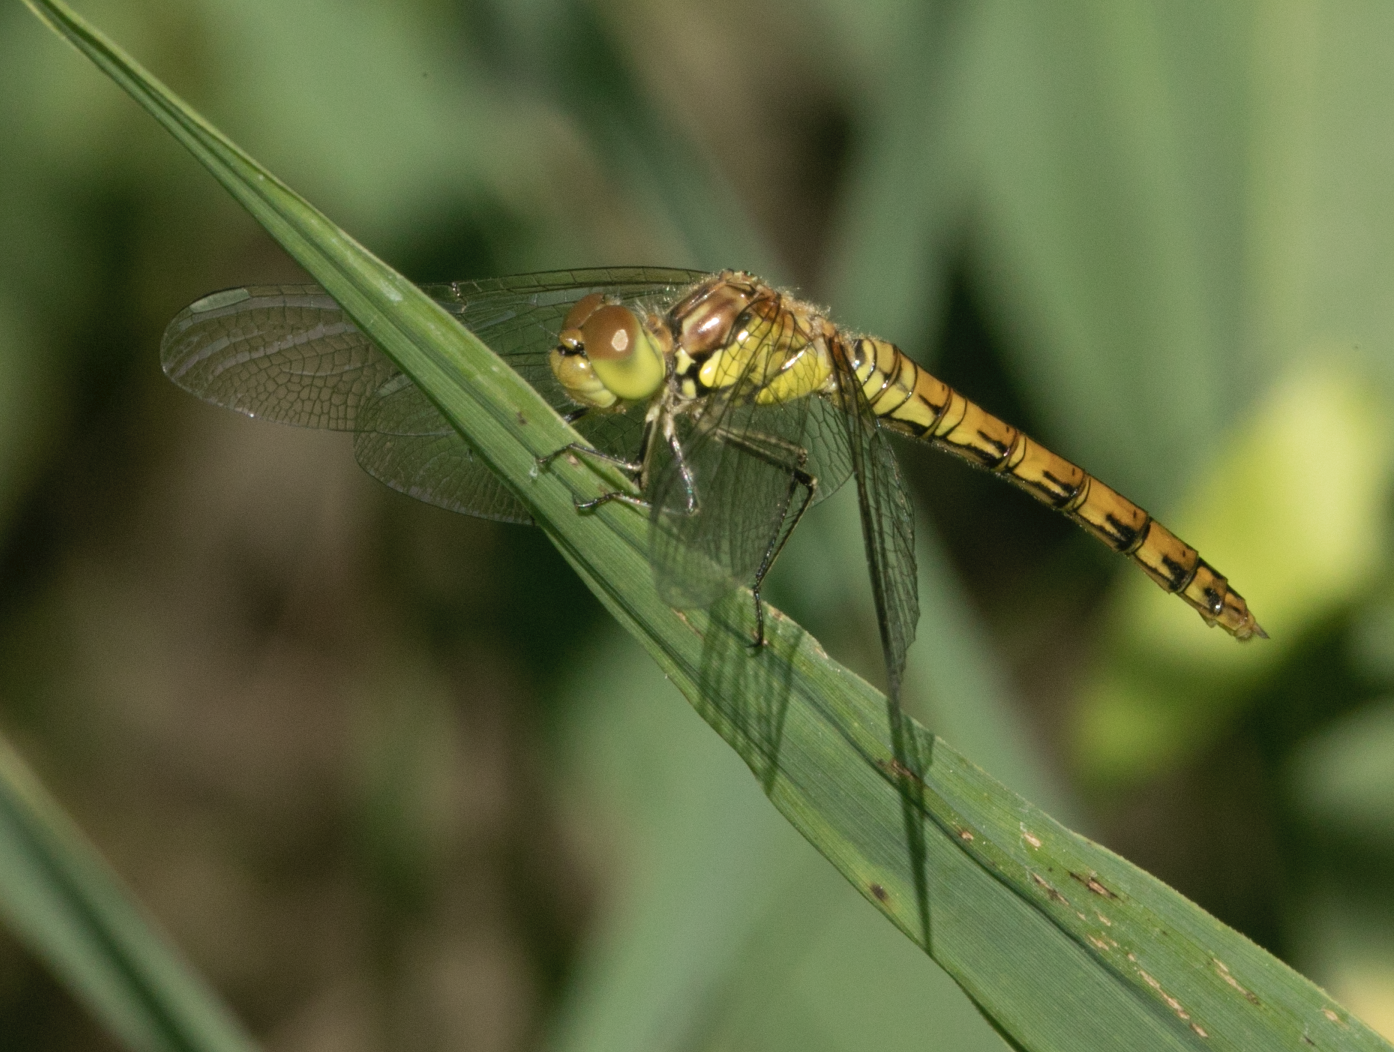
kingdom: Animalia
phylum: Arthropoda
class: Insecta
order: Odonata
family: Libellulidae
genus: Sympetrum
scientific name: Sympetrum striolatum
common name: Common darter
